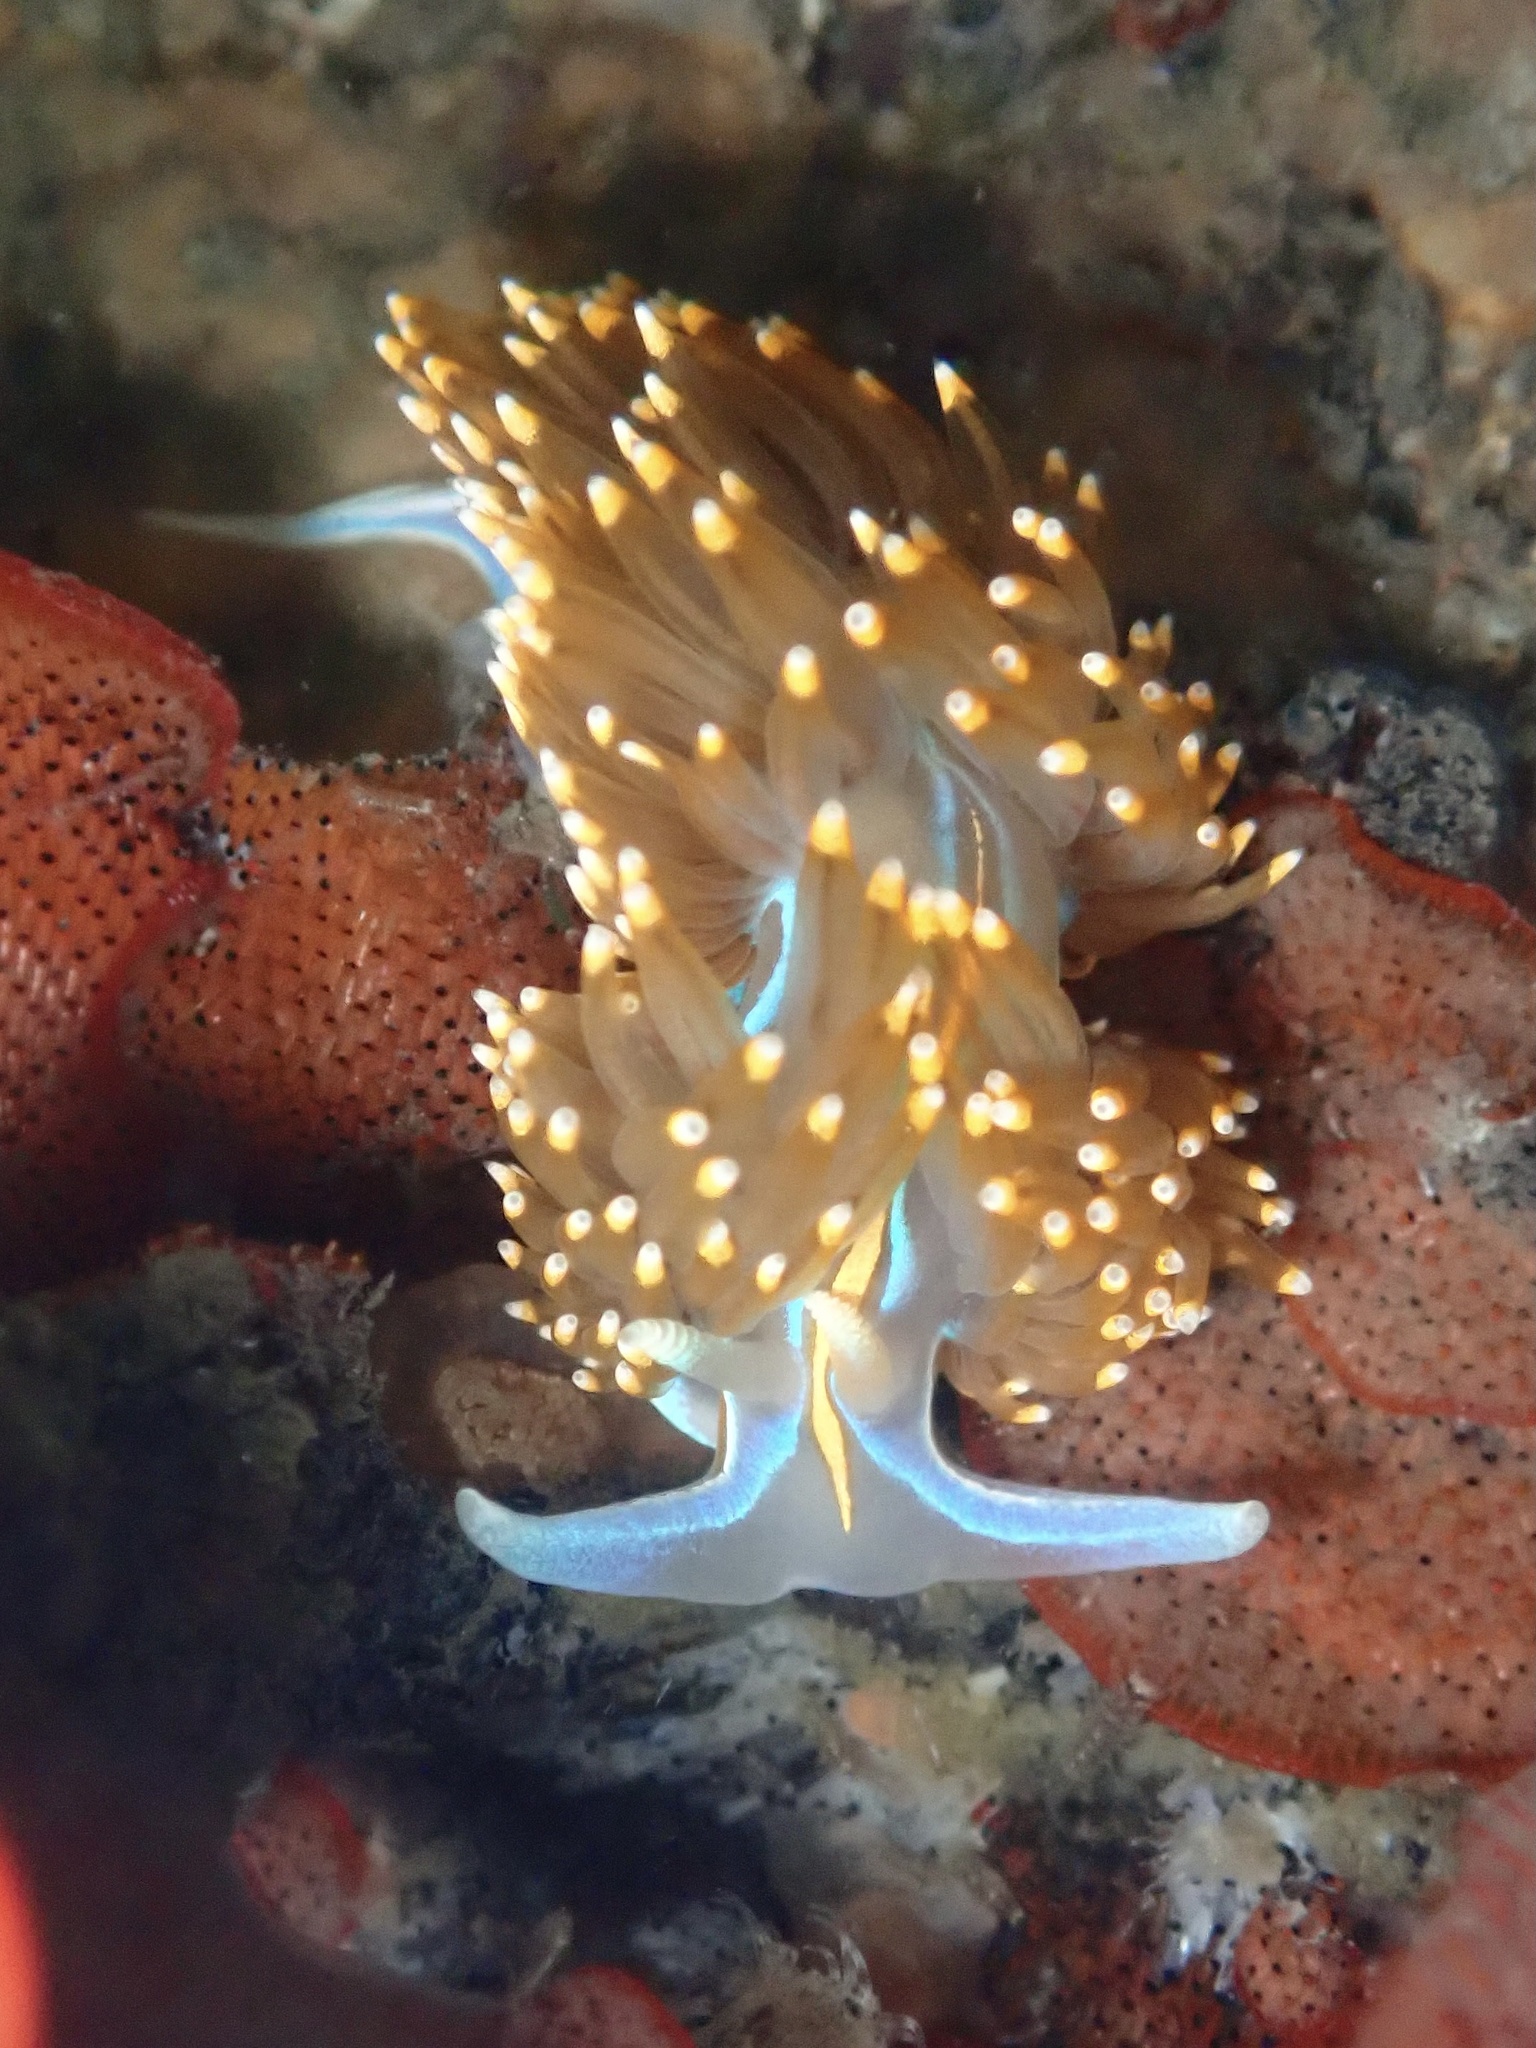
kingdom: Animalia
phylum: Mollusca
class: Gastropoda
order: Nudibranchia
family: Myrrhinidae
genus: Hermissenda
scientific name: Hermissenda opalescens
